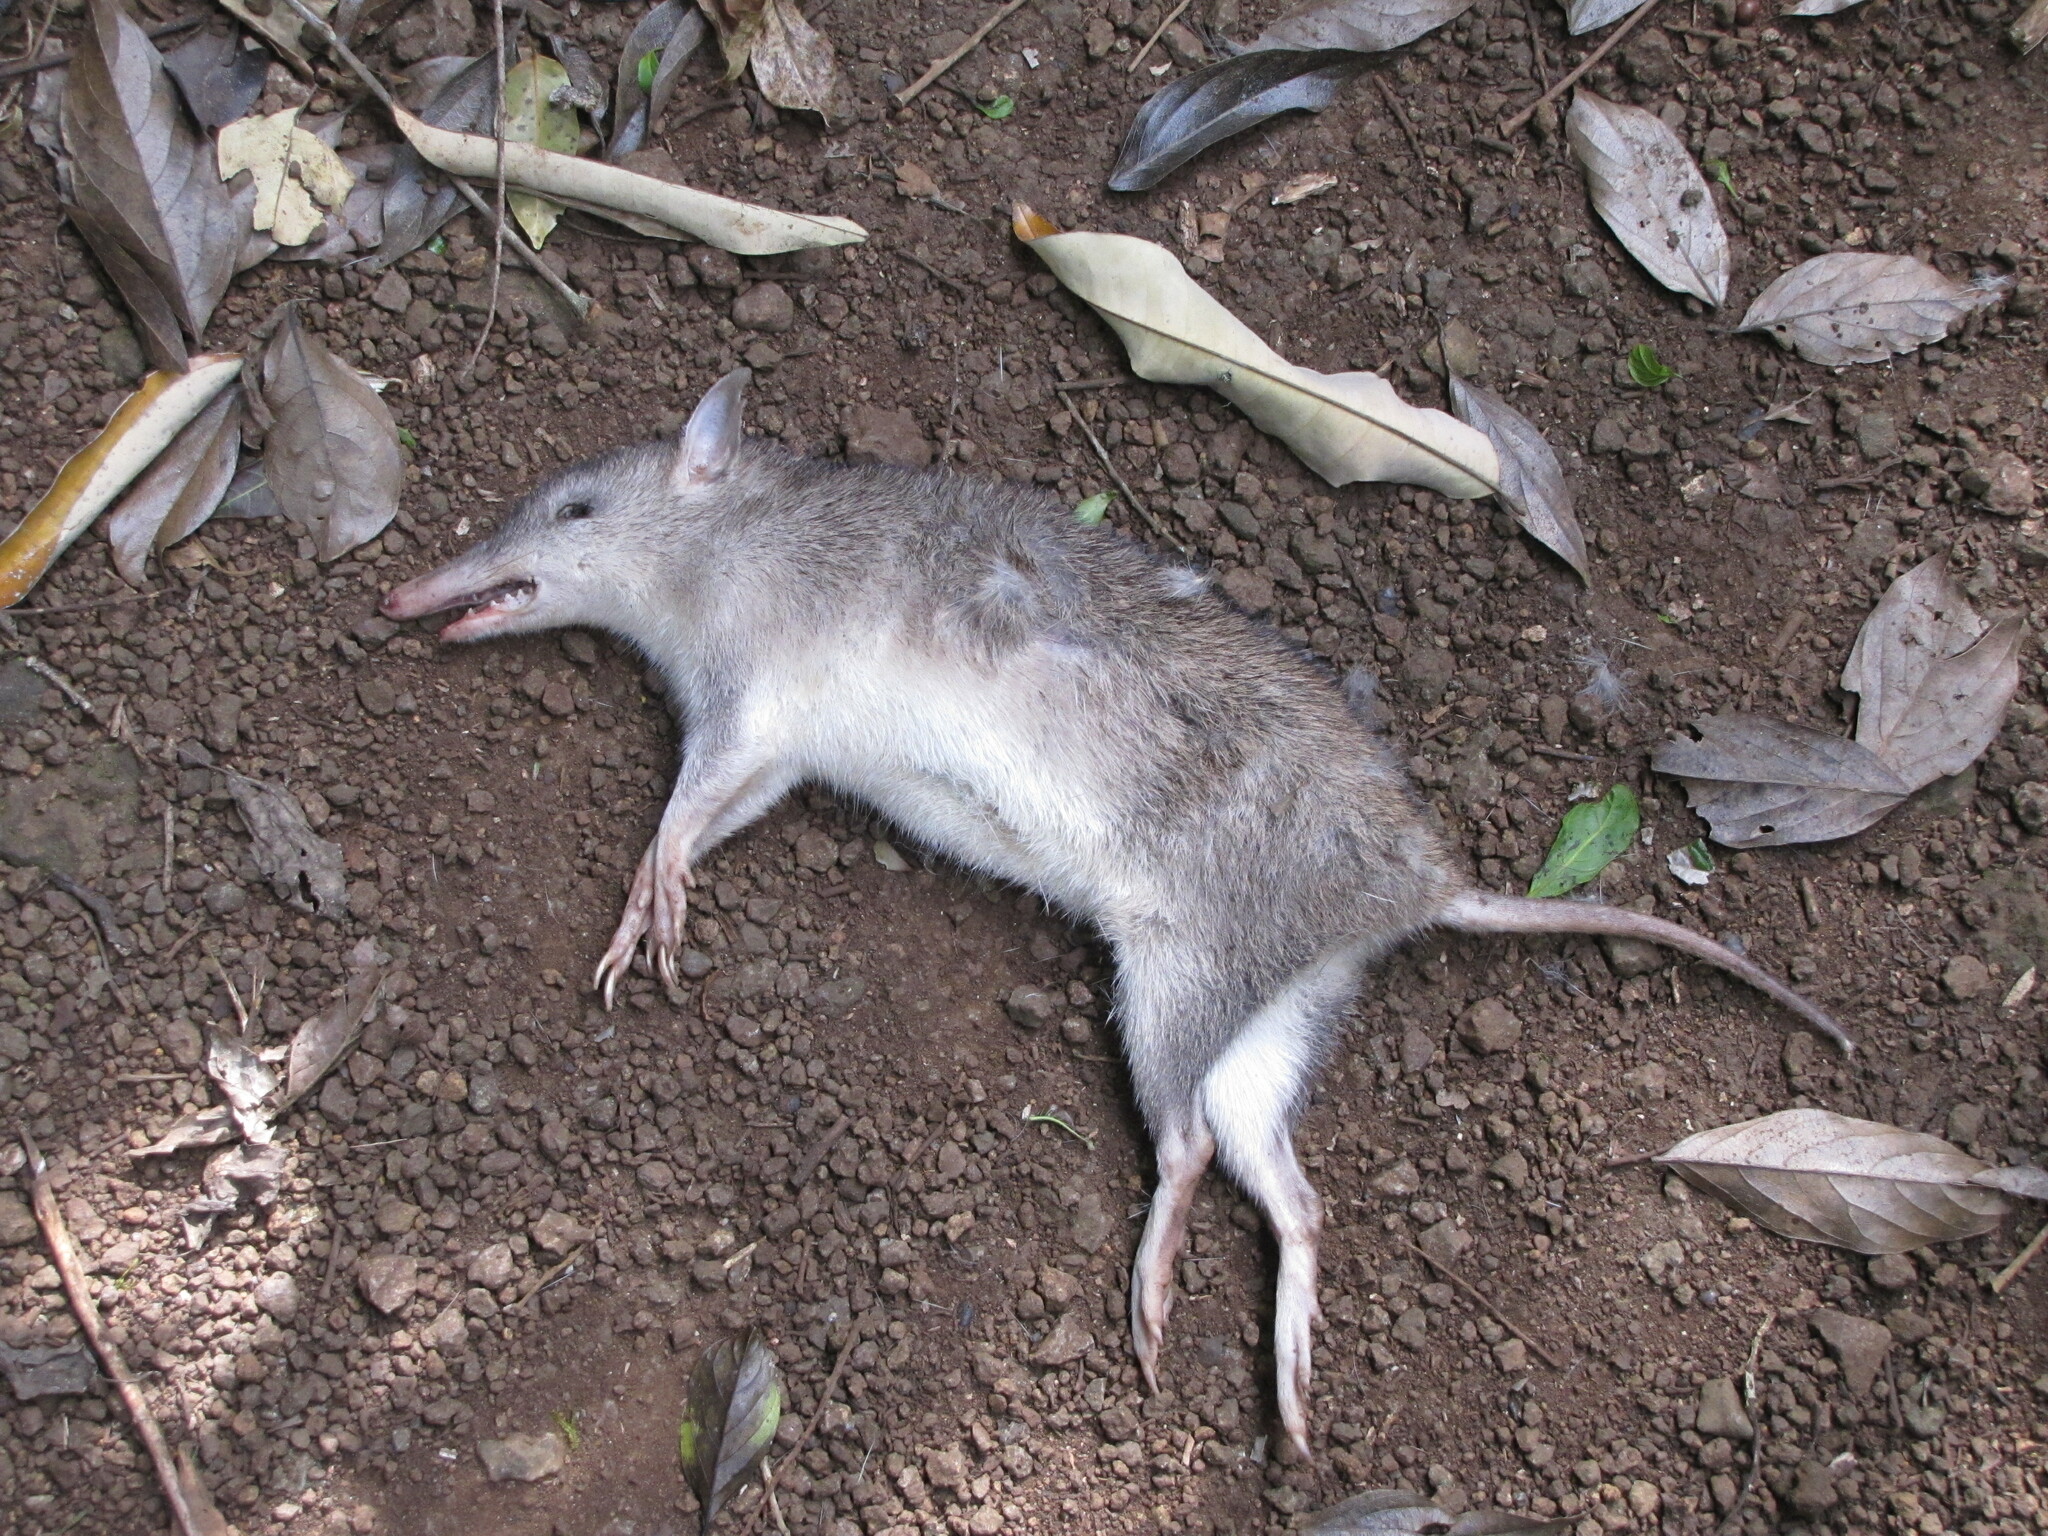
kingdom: Animalia
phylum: Chordata
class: Mammalia
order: Peramelemorphia
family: Peramelidae
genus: Perameles
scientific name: Perameles pallescens
